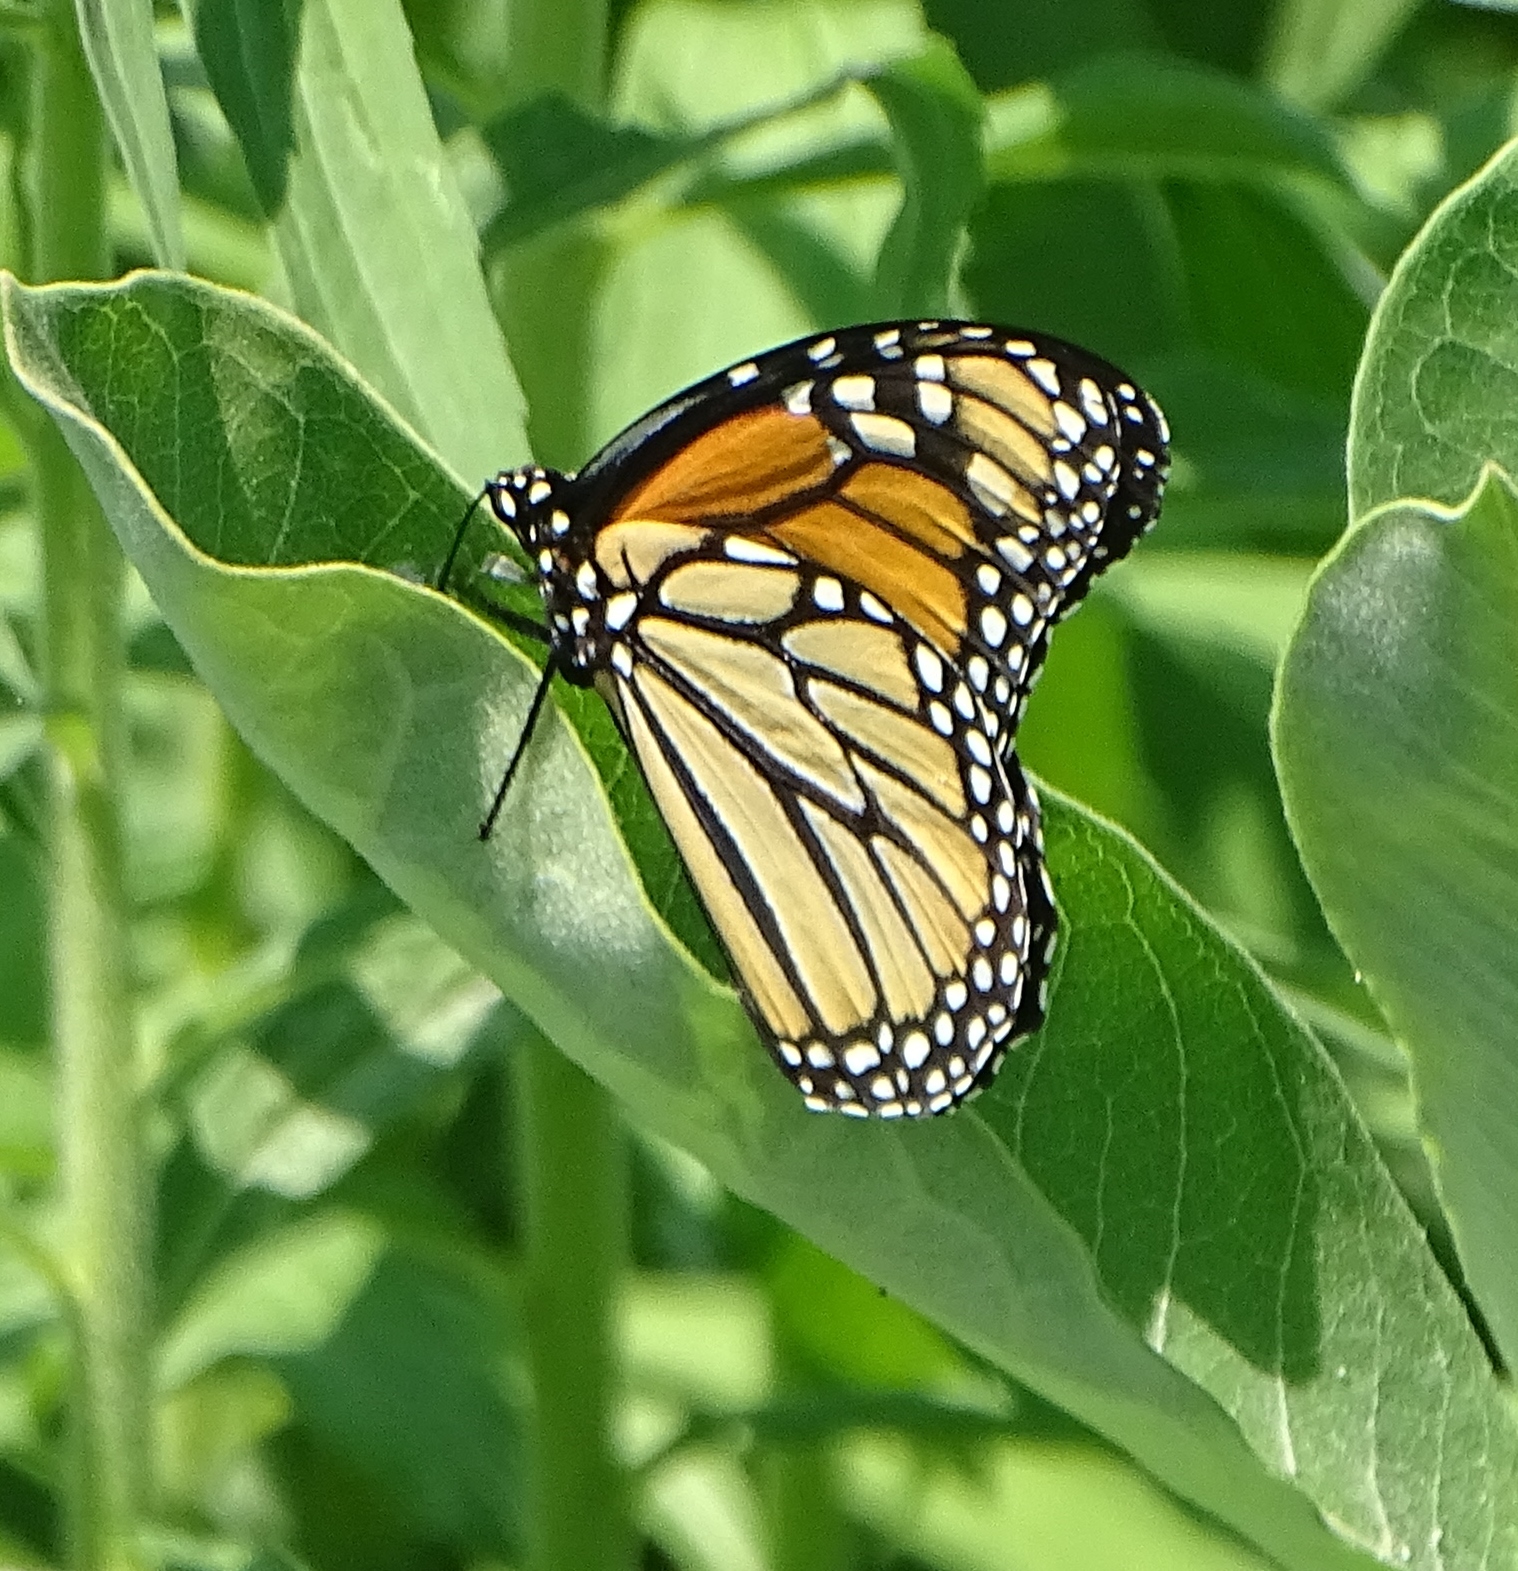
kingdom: Animalia
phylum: Arthropoda
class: Insecta
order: Lepidoptera
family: Nymphalidae
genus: Danaus
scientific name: Danaus plexippus
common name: Monarch
